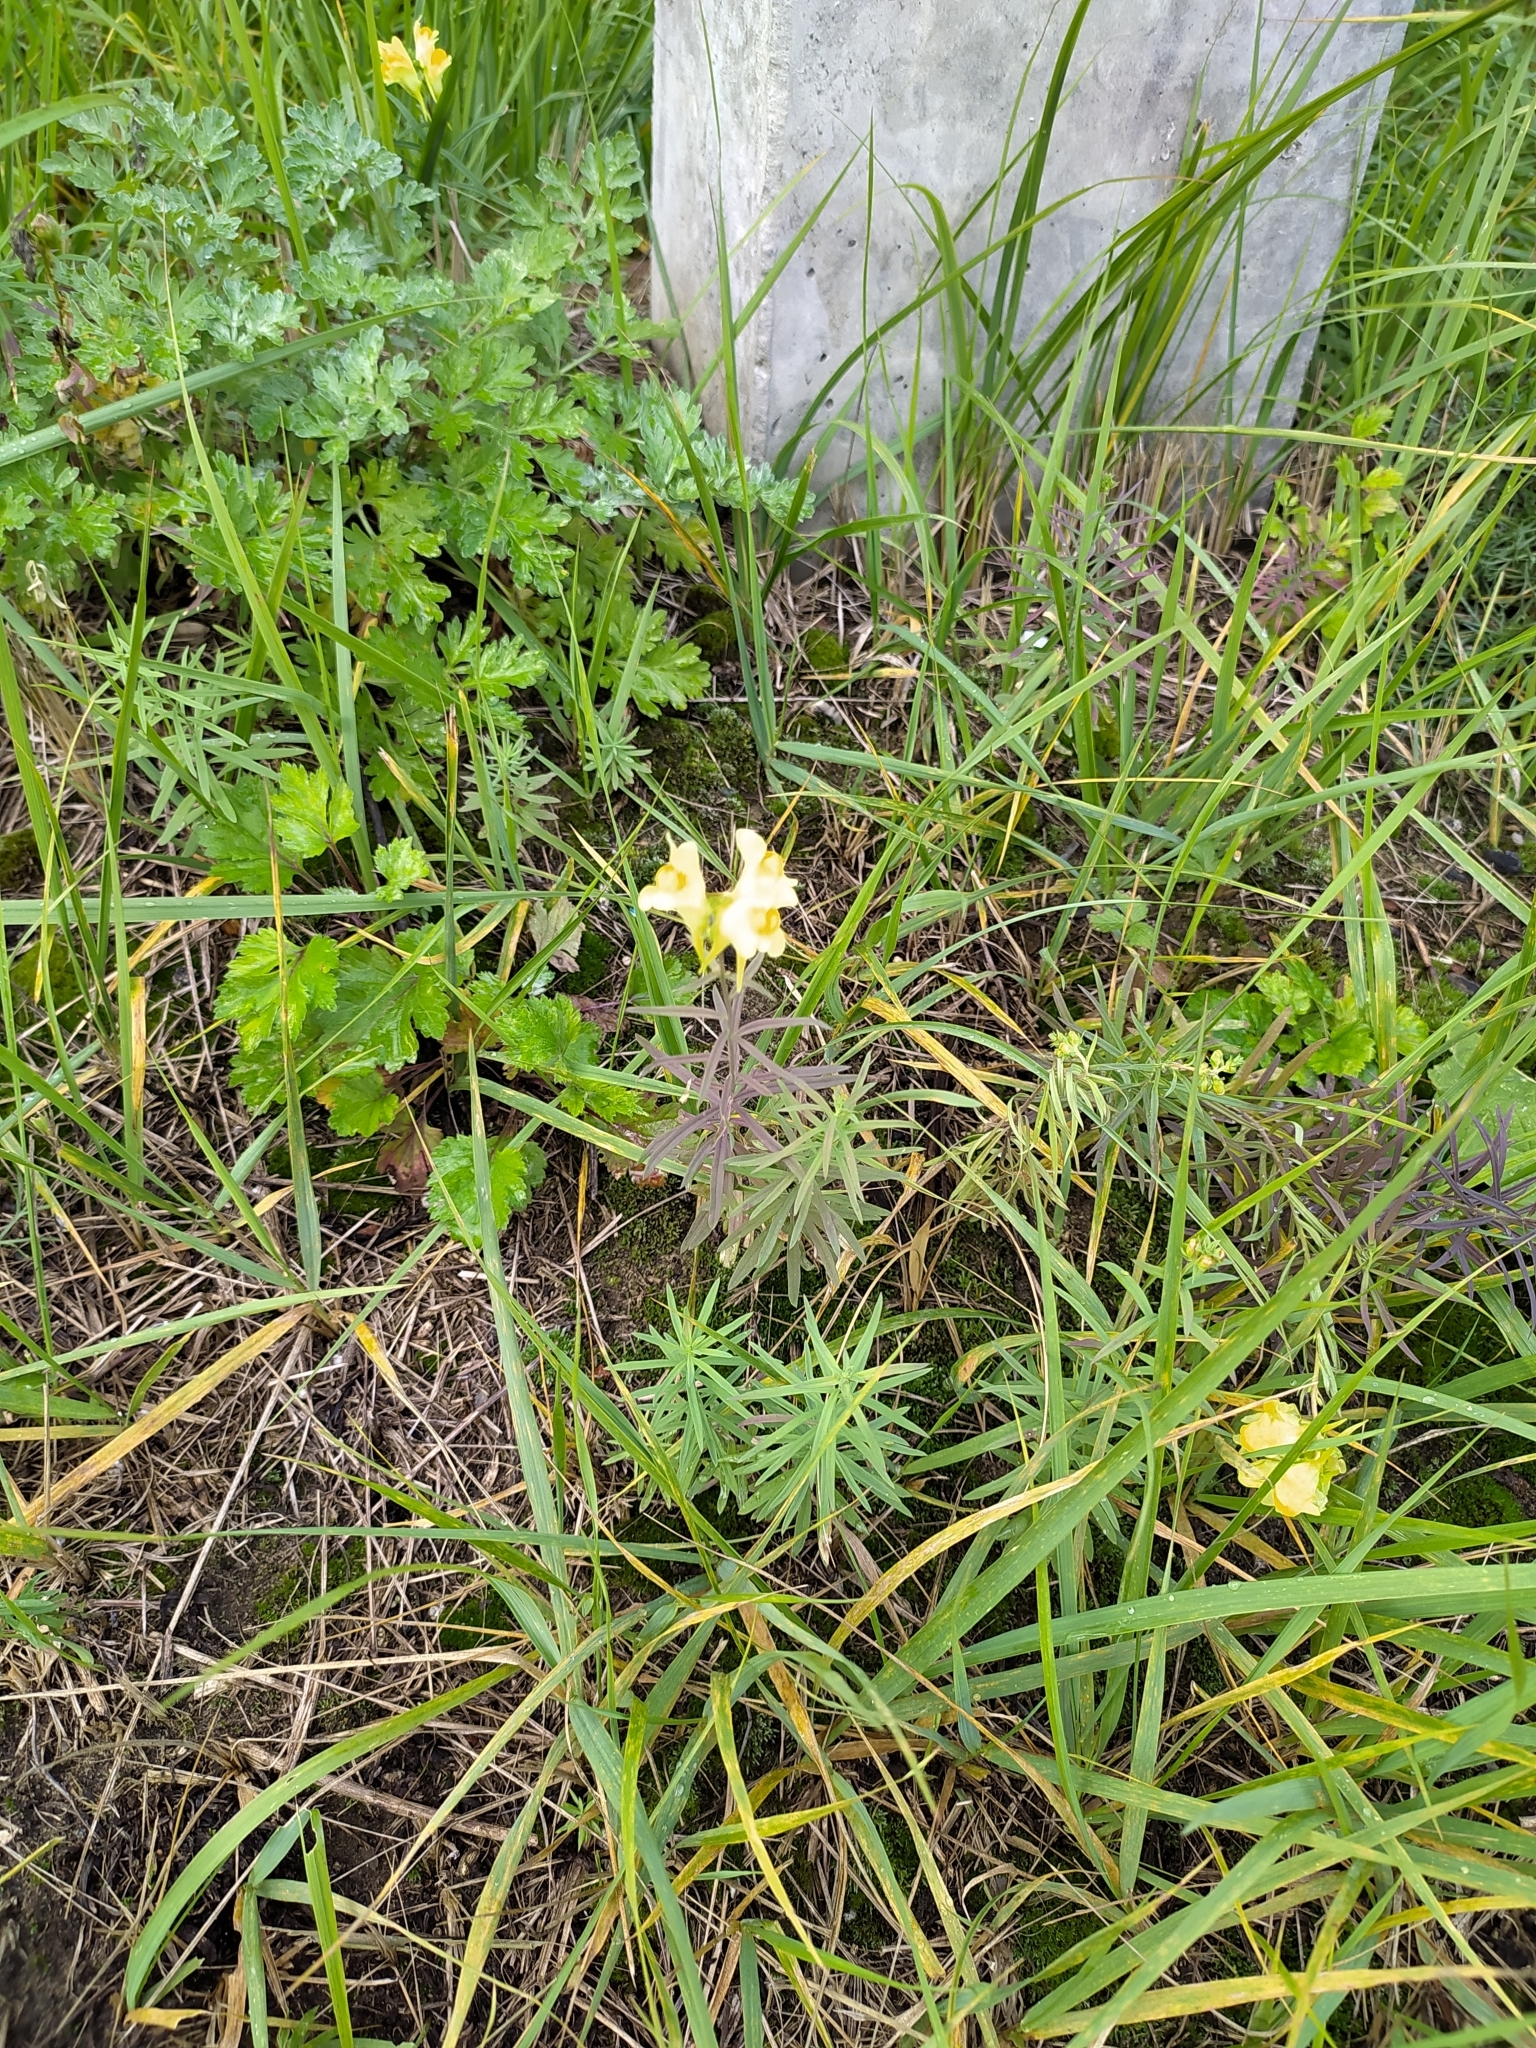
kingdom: Plantae
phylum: Tracheophyta
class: Magnoliopsida
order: Lamiales
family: Plantaginaceae
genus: Linaria
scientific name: Linaria vulgaris
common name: Butter and eggs
